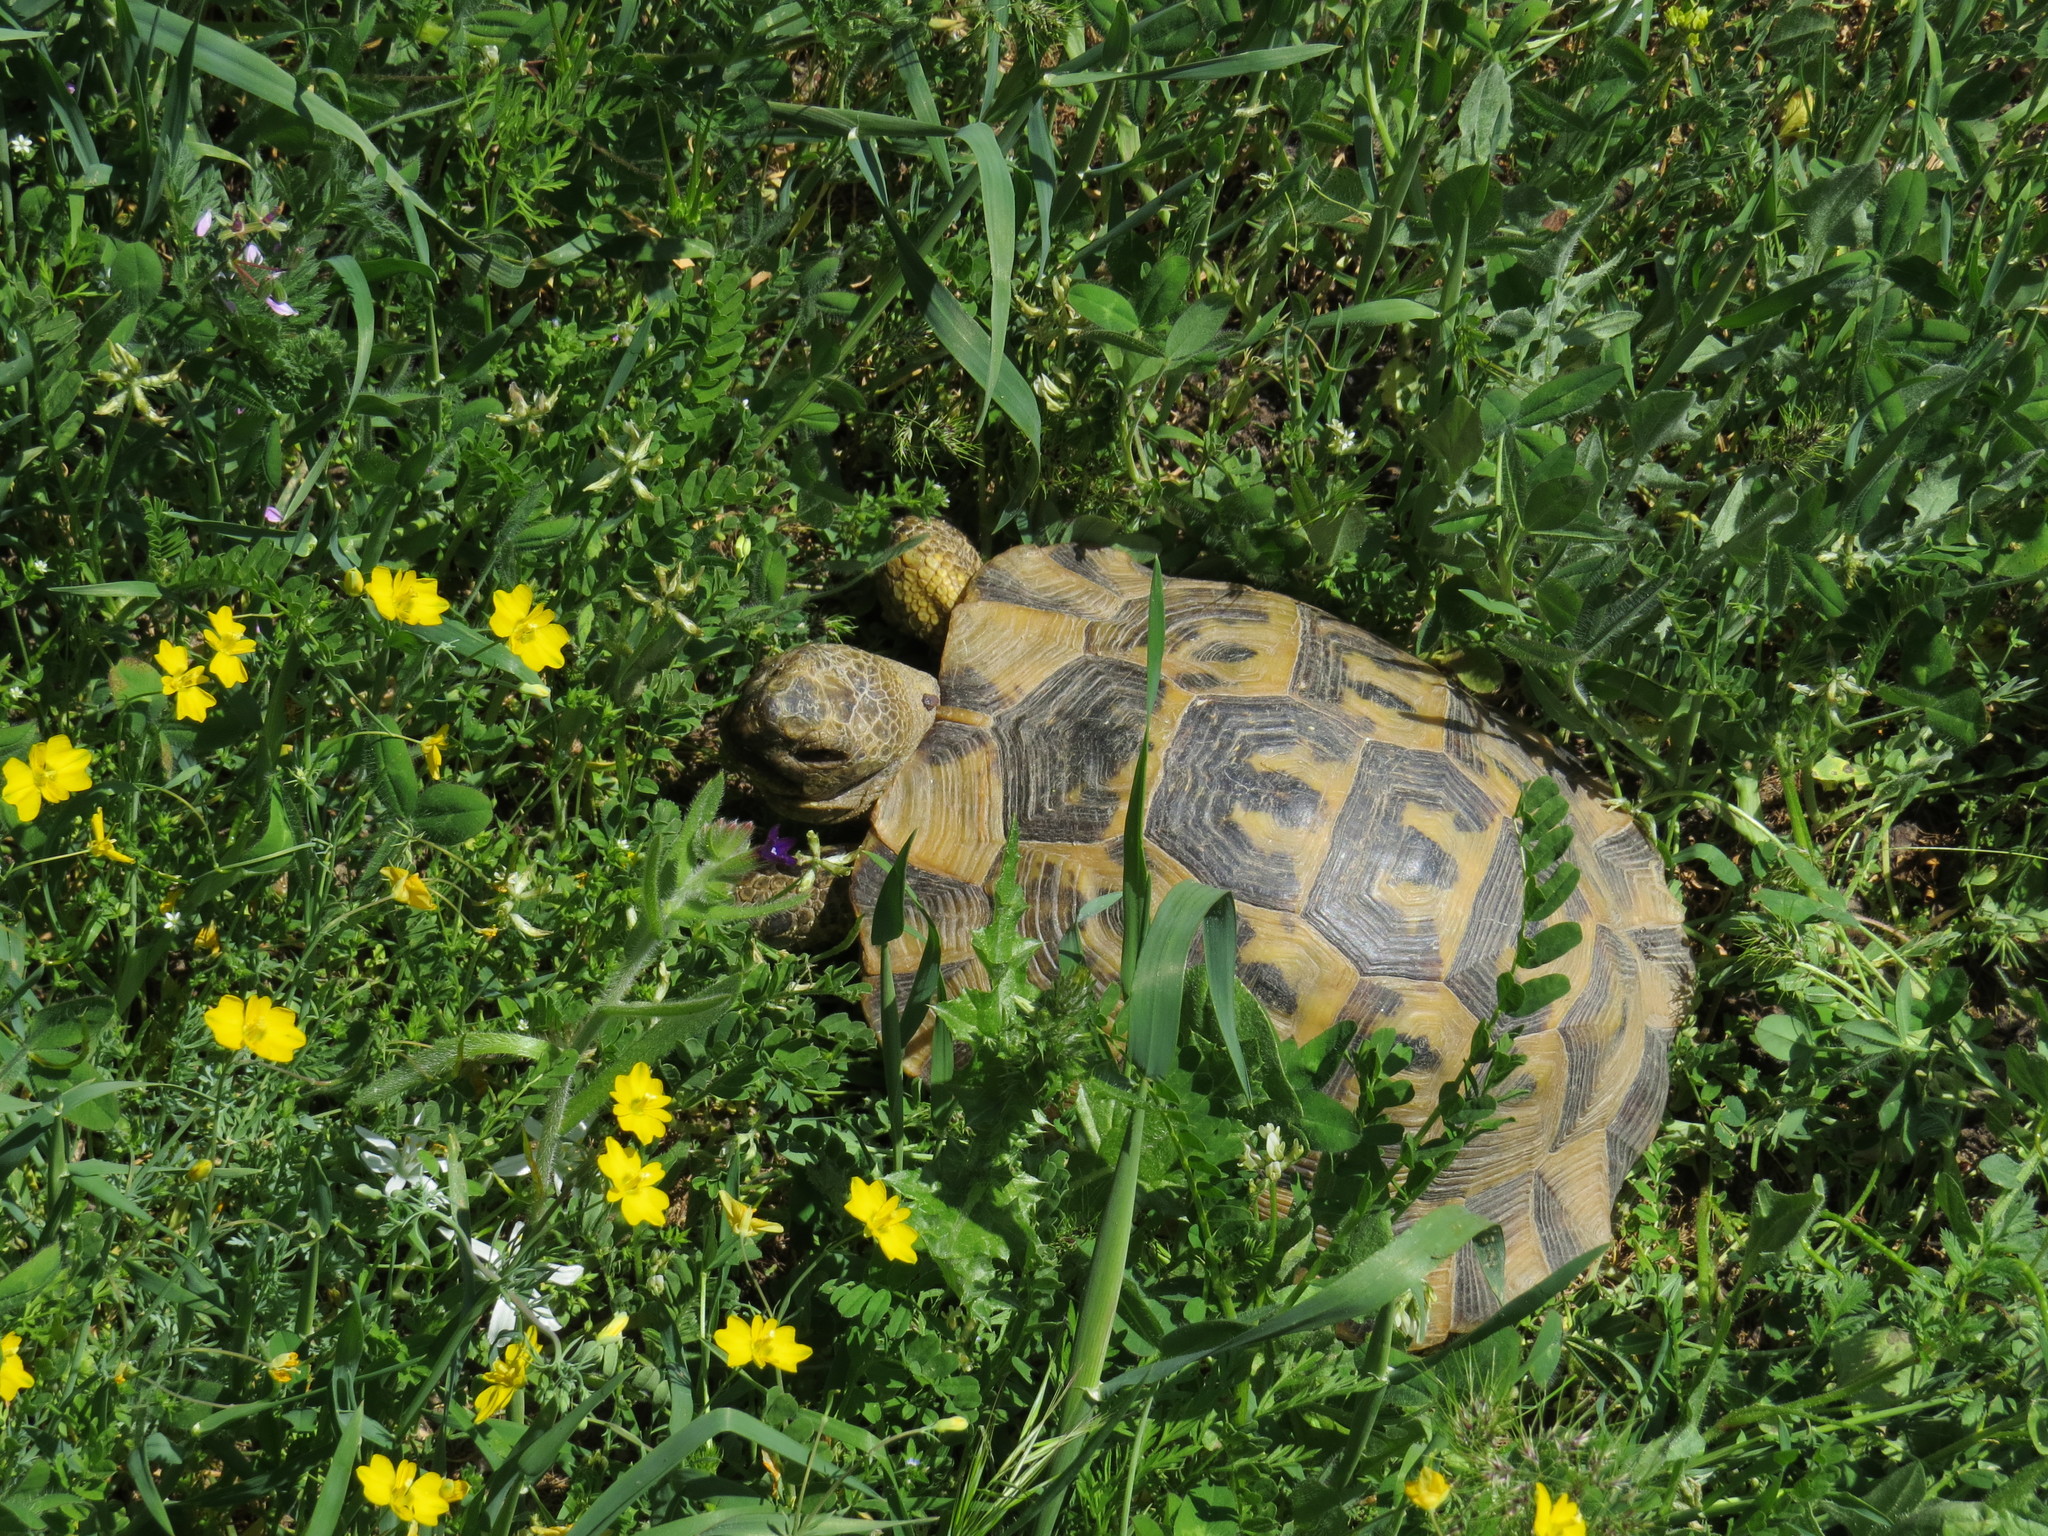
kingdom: Animalia
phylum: Chordata
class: Testudines
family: Testudinidae
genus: Testudo
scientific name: Testudo graeca
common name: Common tortoise
